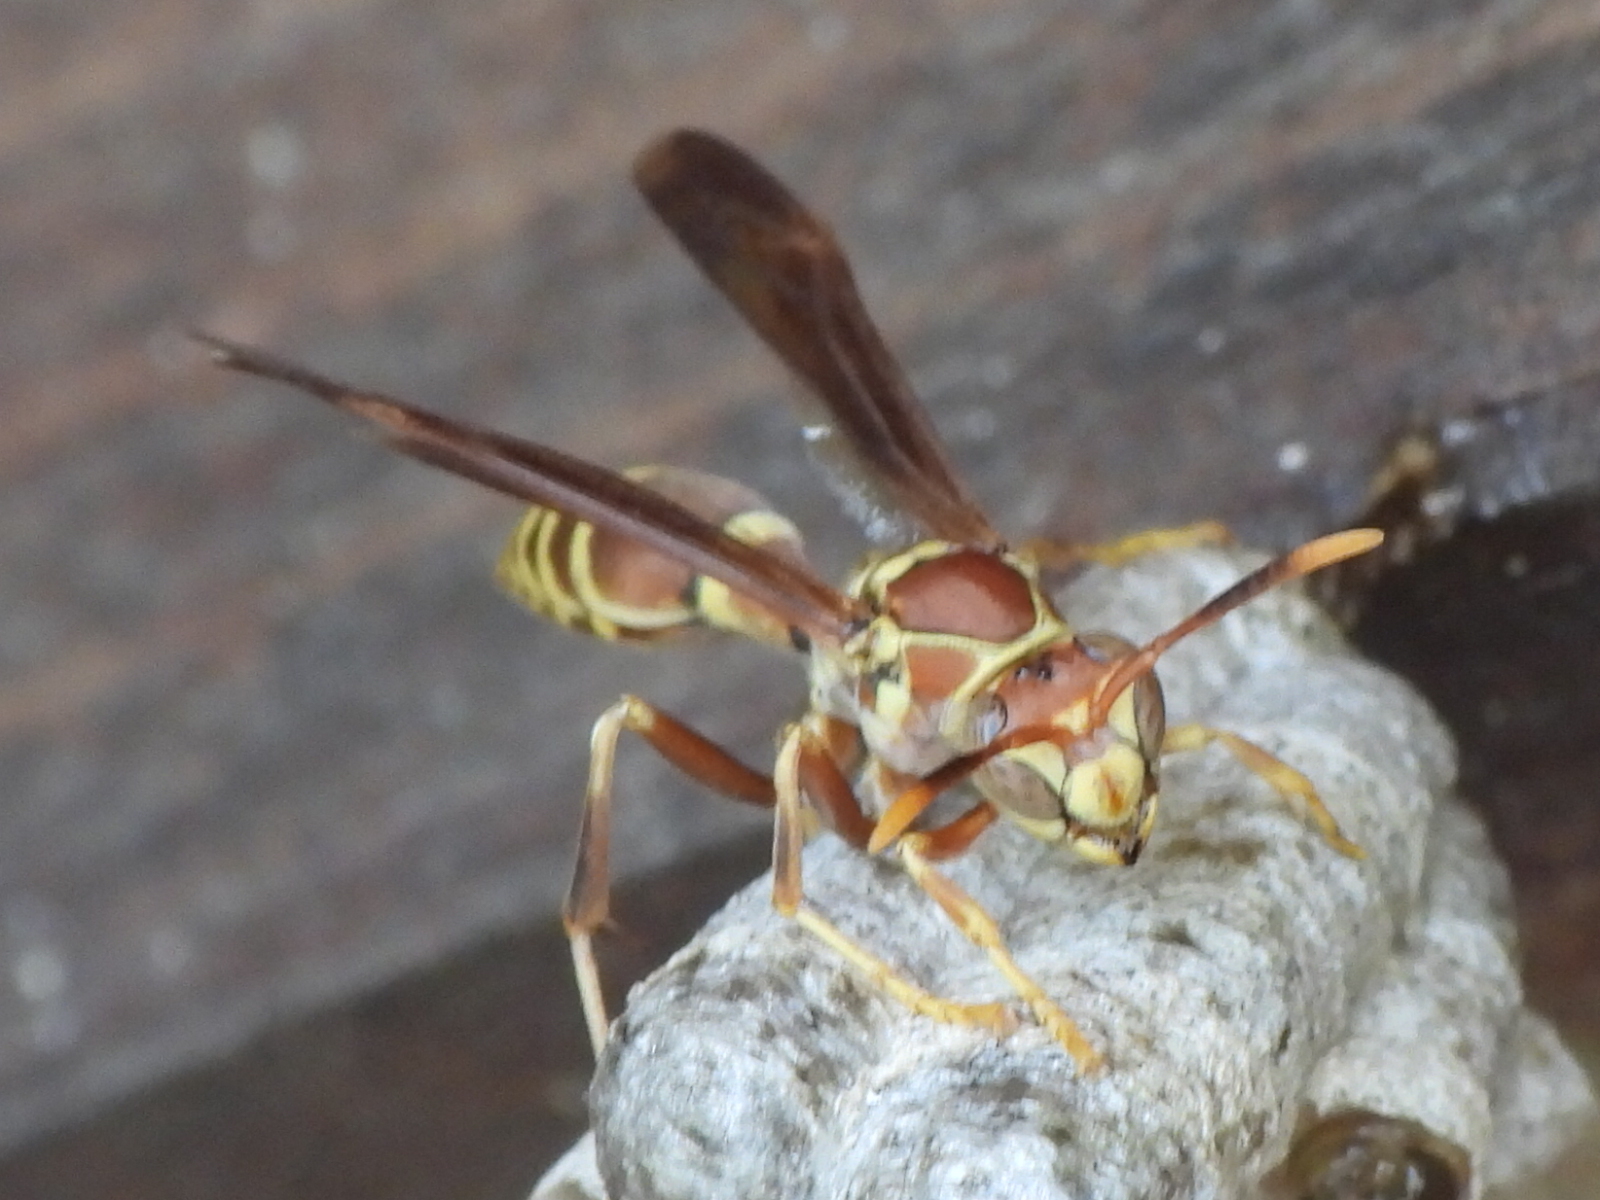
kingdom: Animalia
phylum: Arthropoda
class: Insecta
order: Hymenoptera
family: Eumenidae
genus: Polistes
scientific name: Polistes exclamans
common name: Paper wasp
